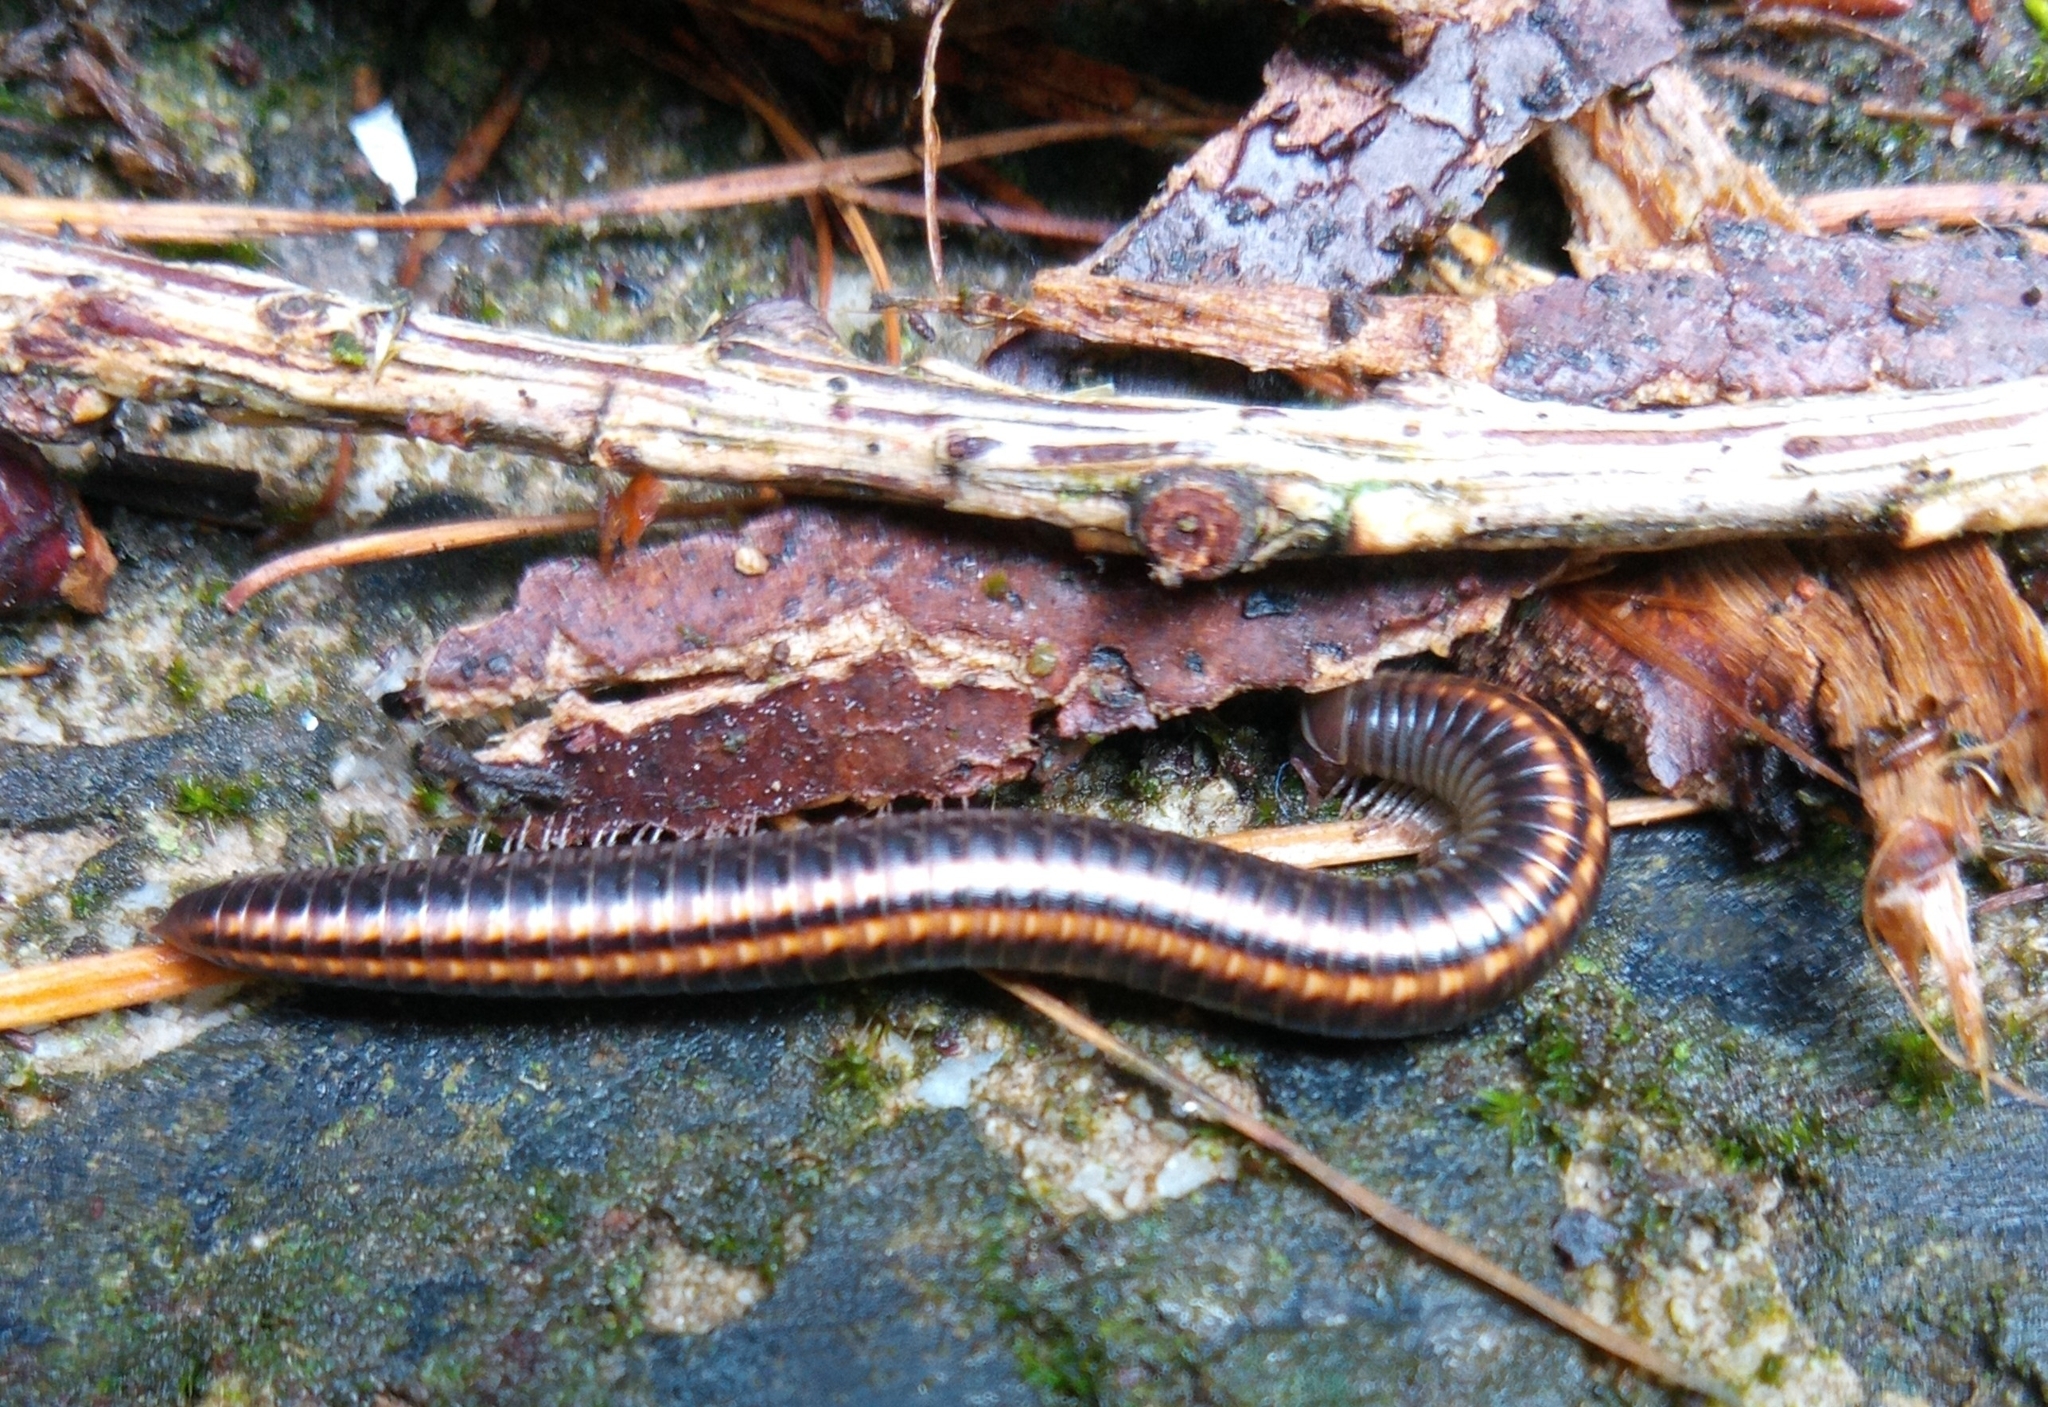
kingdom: Animalia
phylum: Arthropoda
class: Diplopoda
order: Julida
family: Julidae
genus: Ommatoiulus
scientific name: Ommatoiulus sabulosus
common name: Striped millipede
